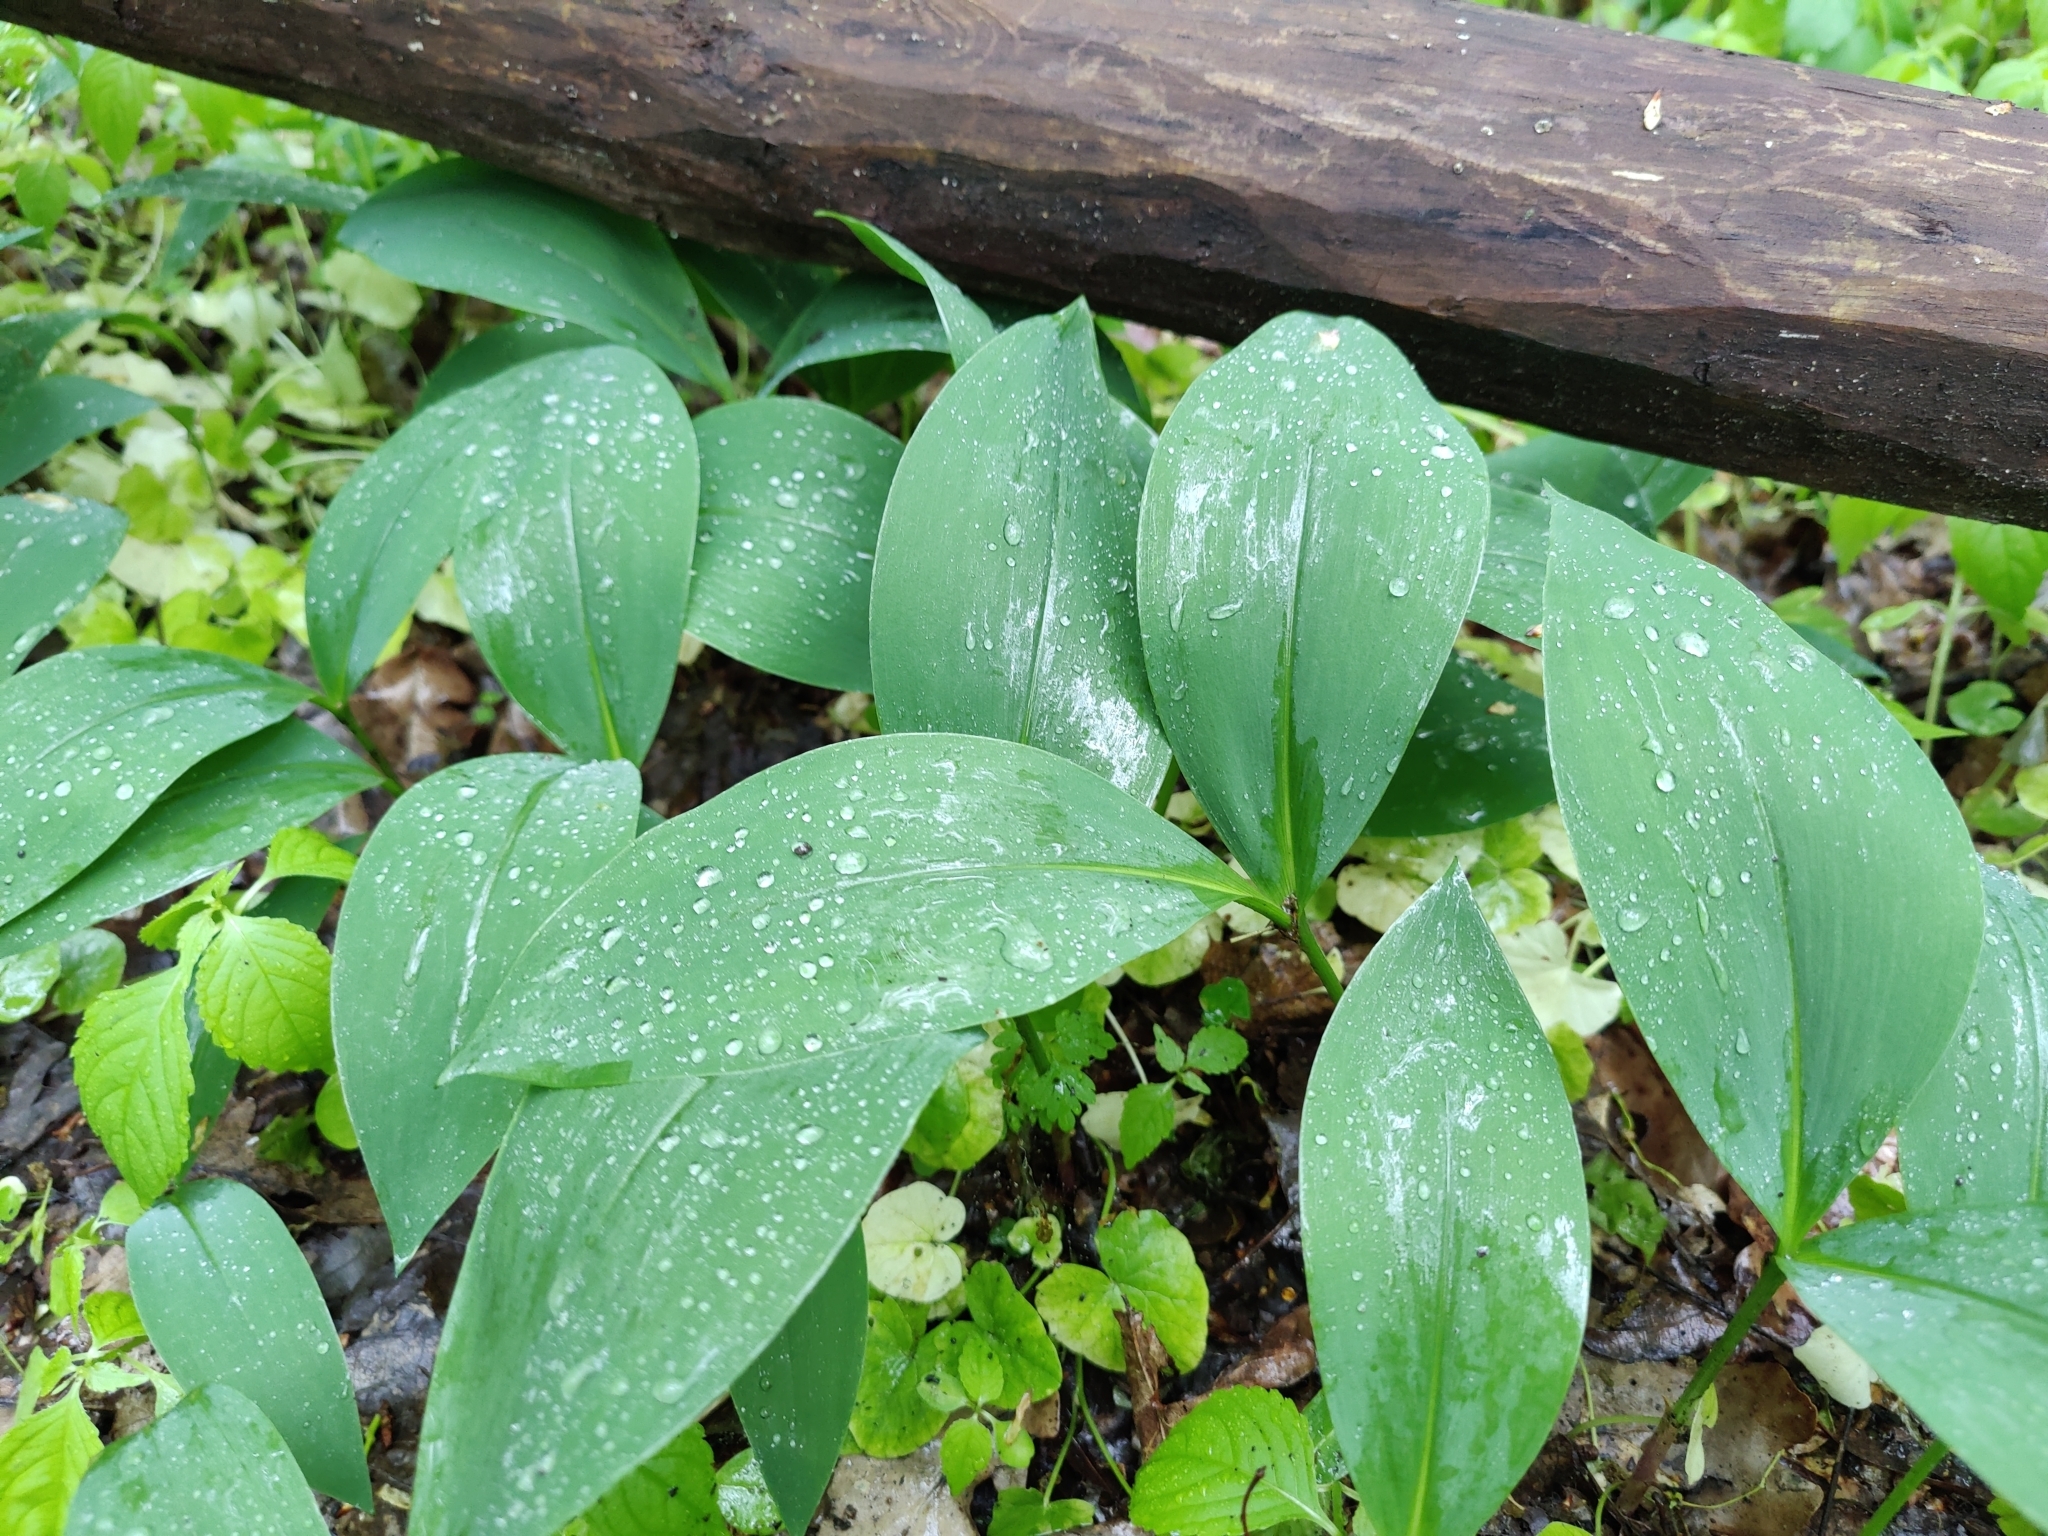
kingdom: Plantae
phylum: Tracheophyta
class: Liliopsida
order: Asparagales
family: Asparagaceae
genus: Convallaria
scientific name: Convallaria majalis
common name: Lily-of-the-valley
